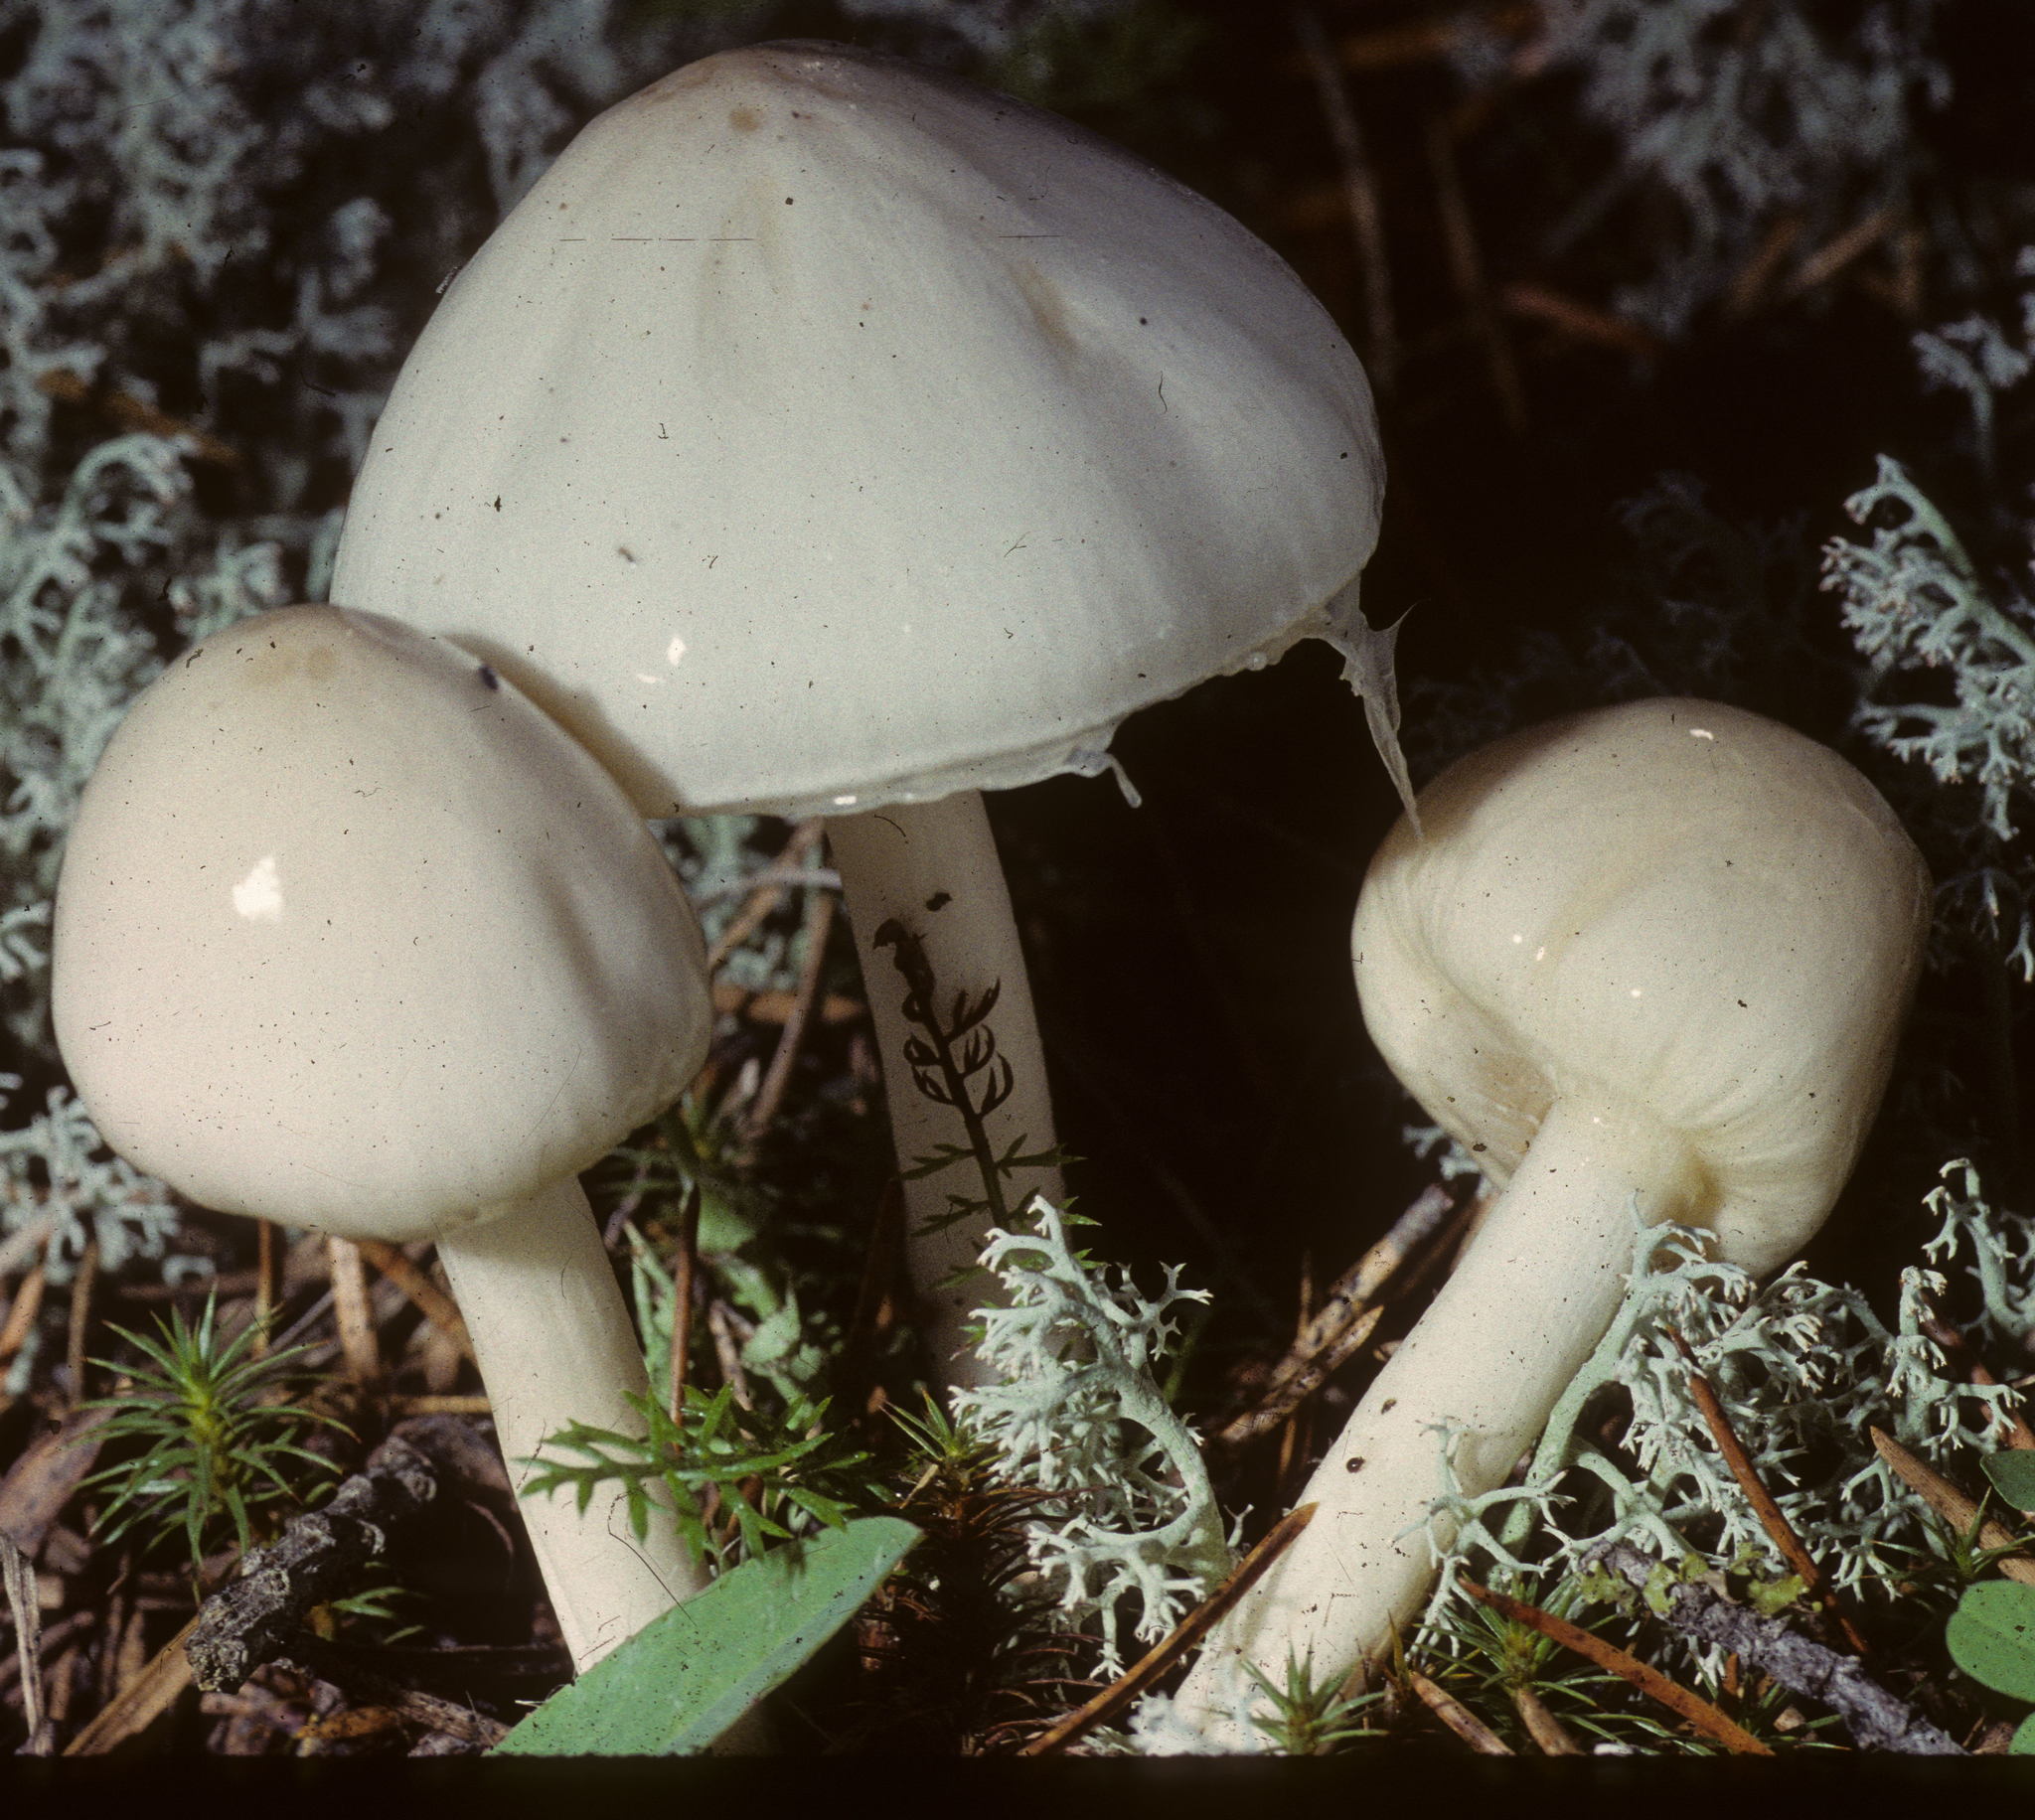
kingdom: Fungi
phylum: Basidiomycota
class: Agaricomycetes
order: Agaricales
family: Amanitaceae
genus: Zhuliangomyces
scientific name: Zhuliangomyces illinitus
